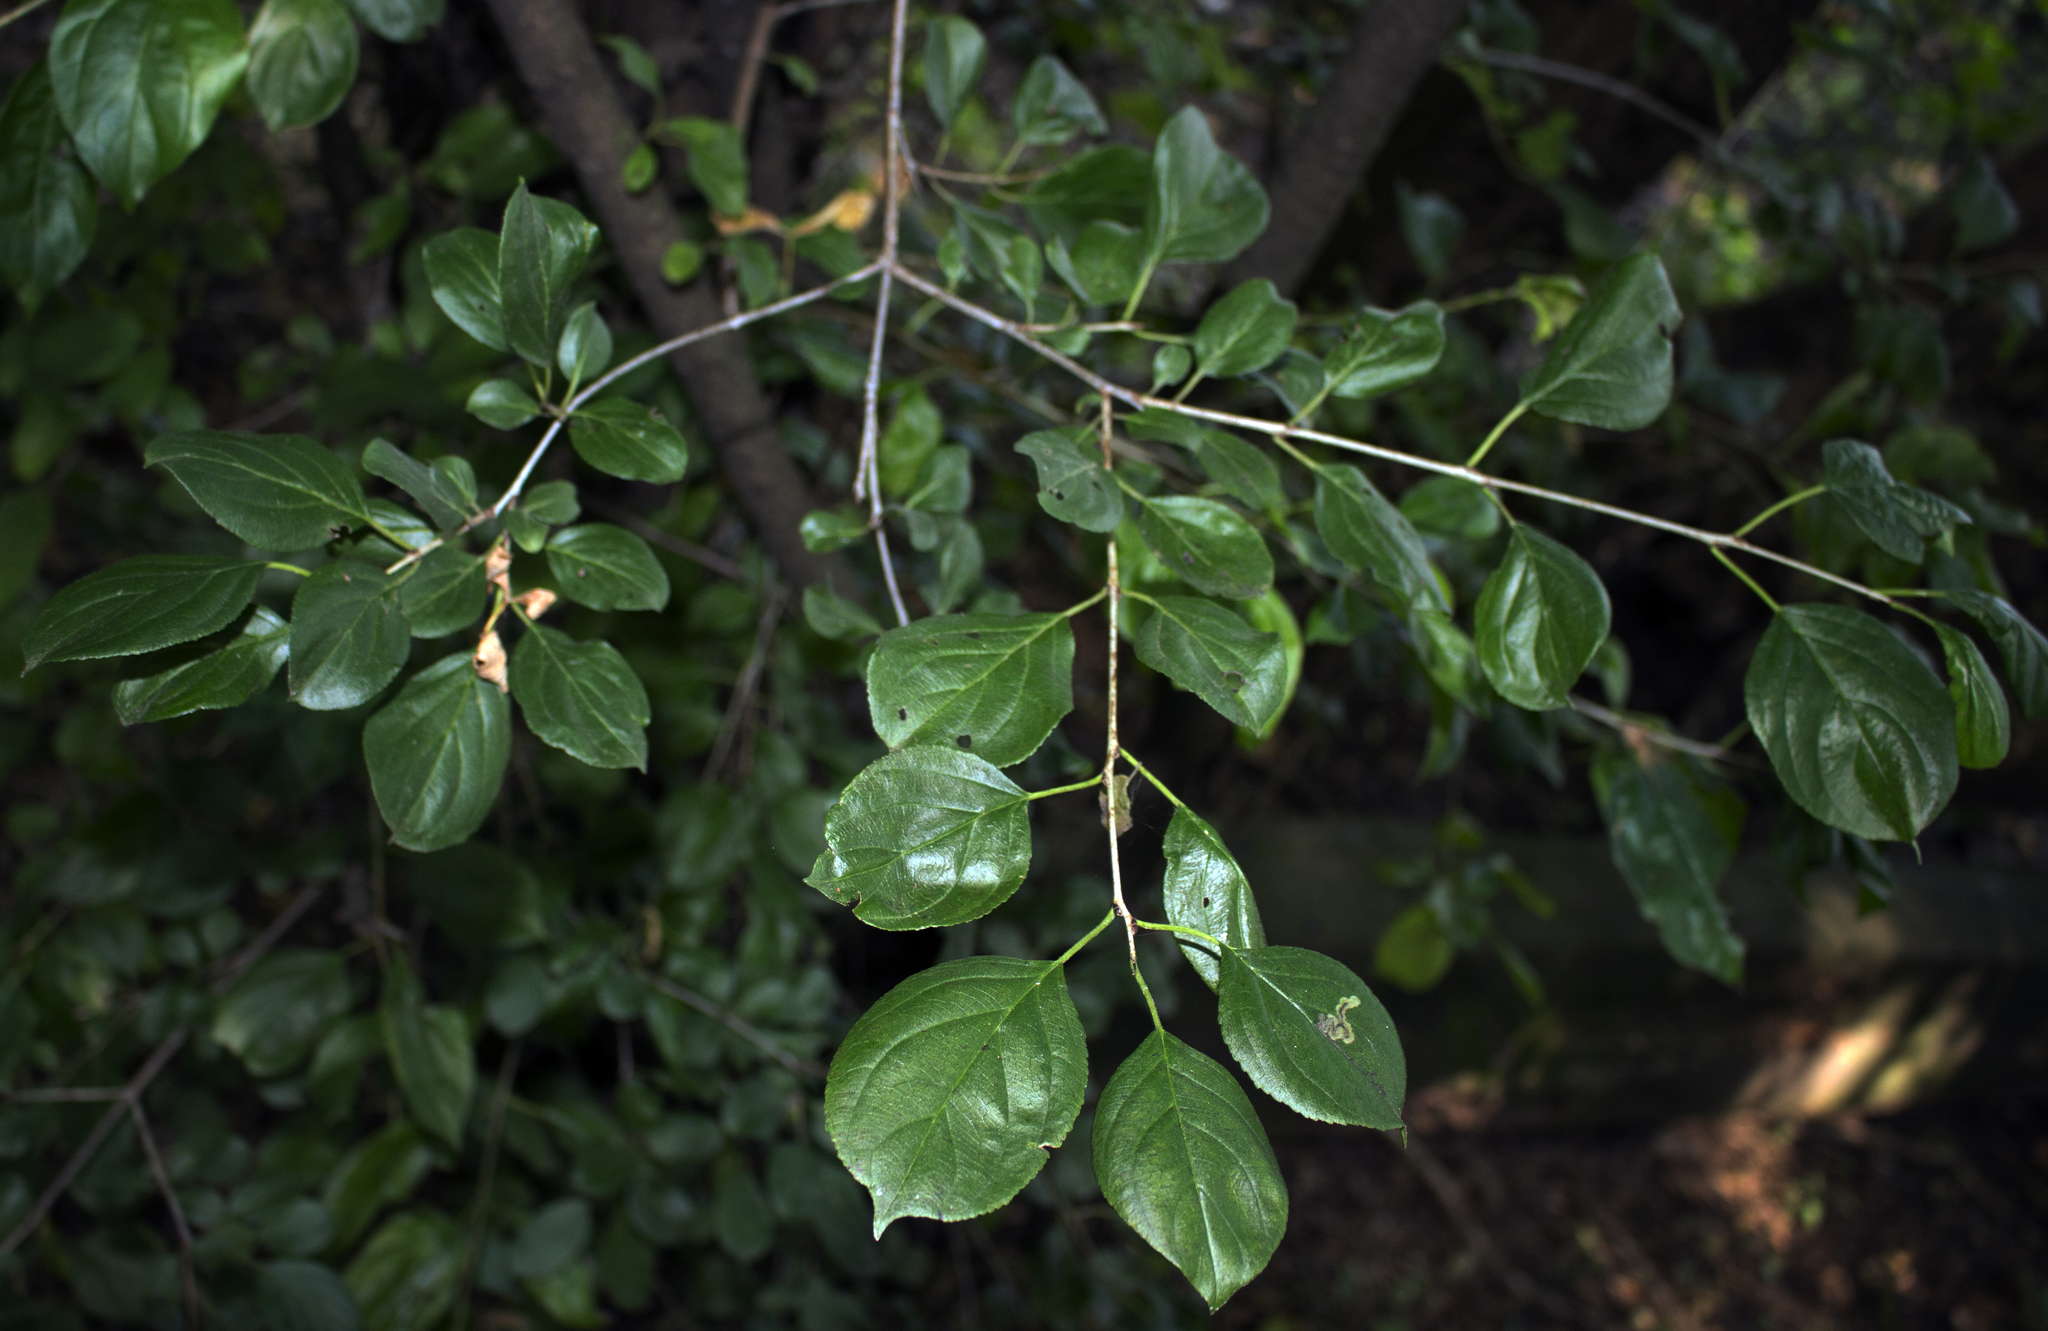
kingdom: Plantae
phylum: Tracheophyta
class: Magnoliopsida
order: Rosales
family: Rhamnaceae
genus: Rhamnus
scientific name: Rhamnus cathartica
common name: Common buckthorn
